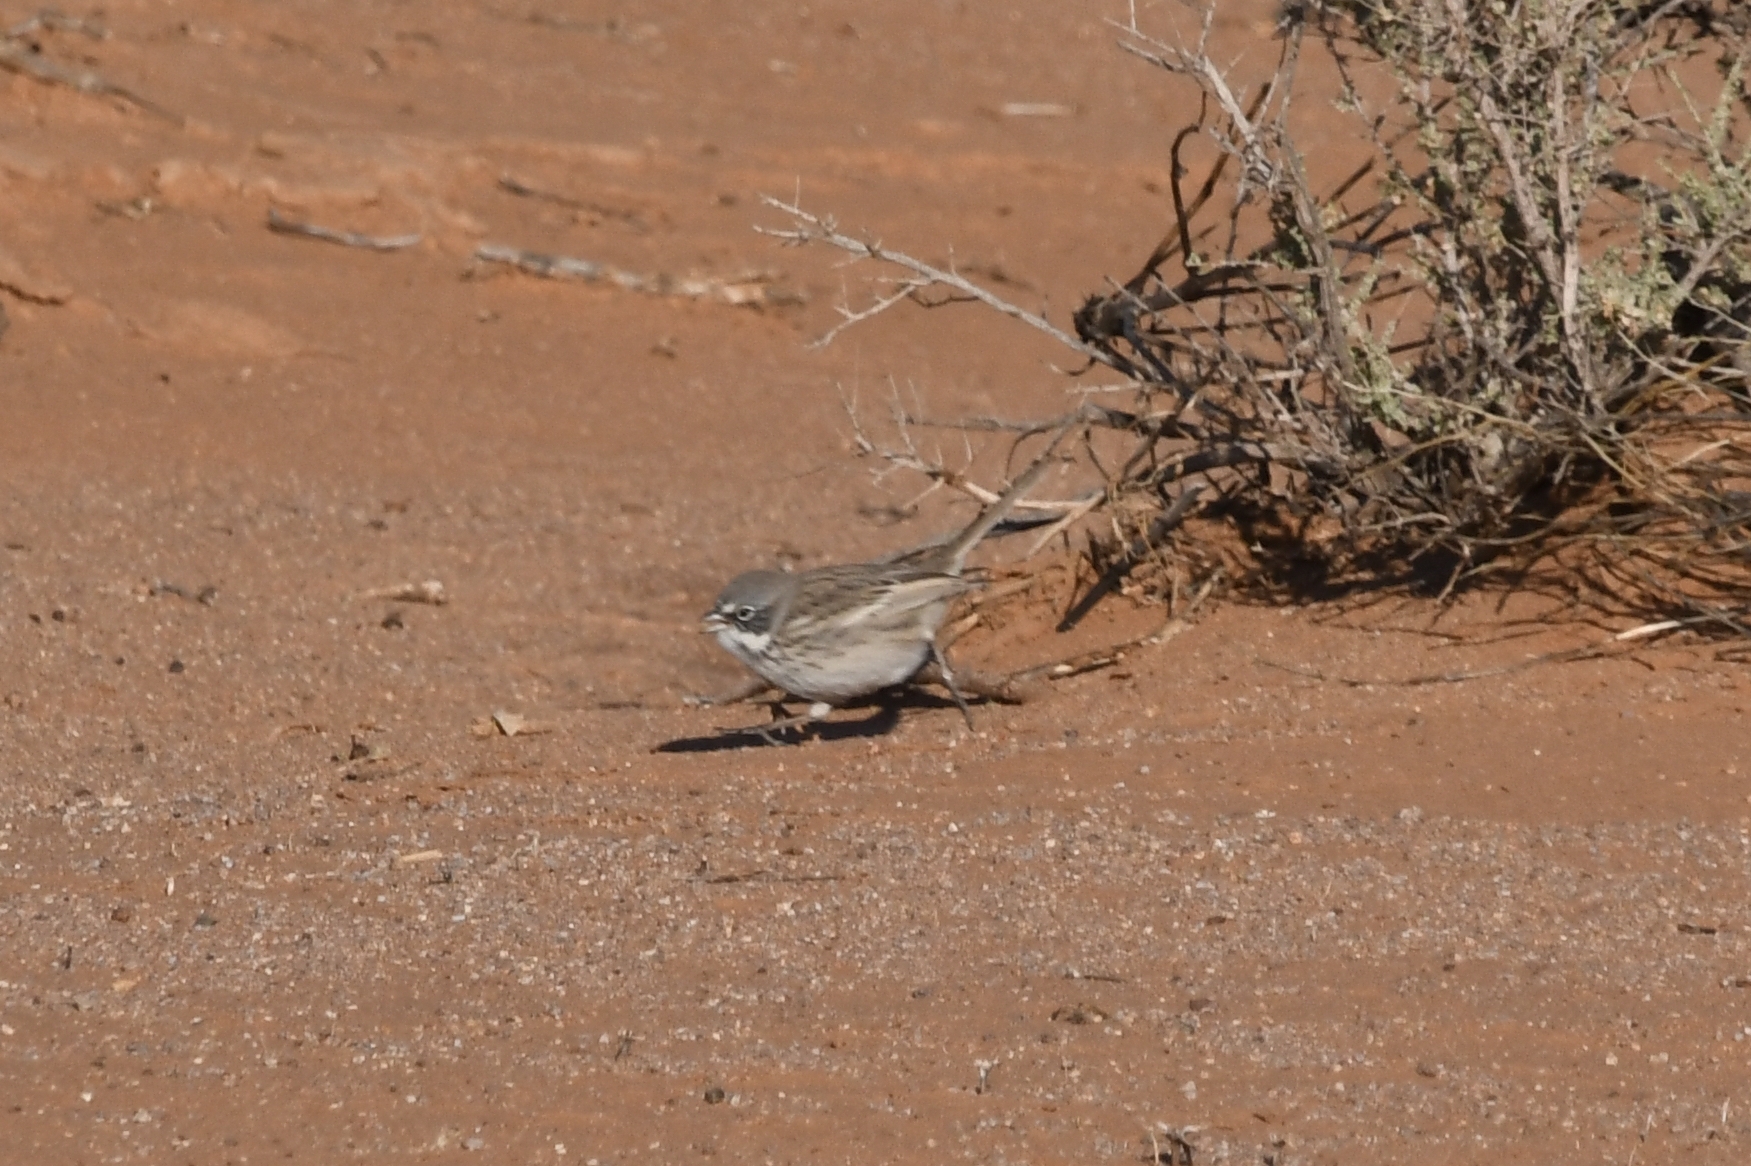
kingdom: Animalia
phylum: Chordata
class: Aves
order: Passeriformes
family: Passerellidae
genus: Artemisiospiza
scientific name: Artemisiospiza nevadensis
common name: Sagebrush sparrow
